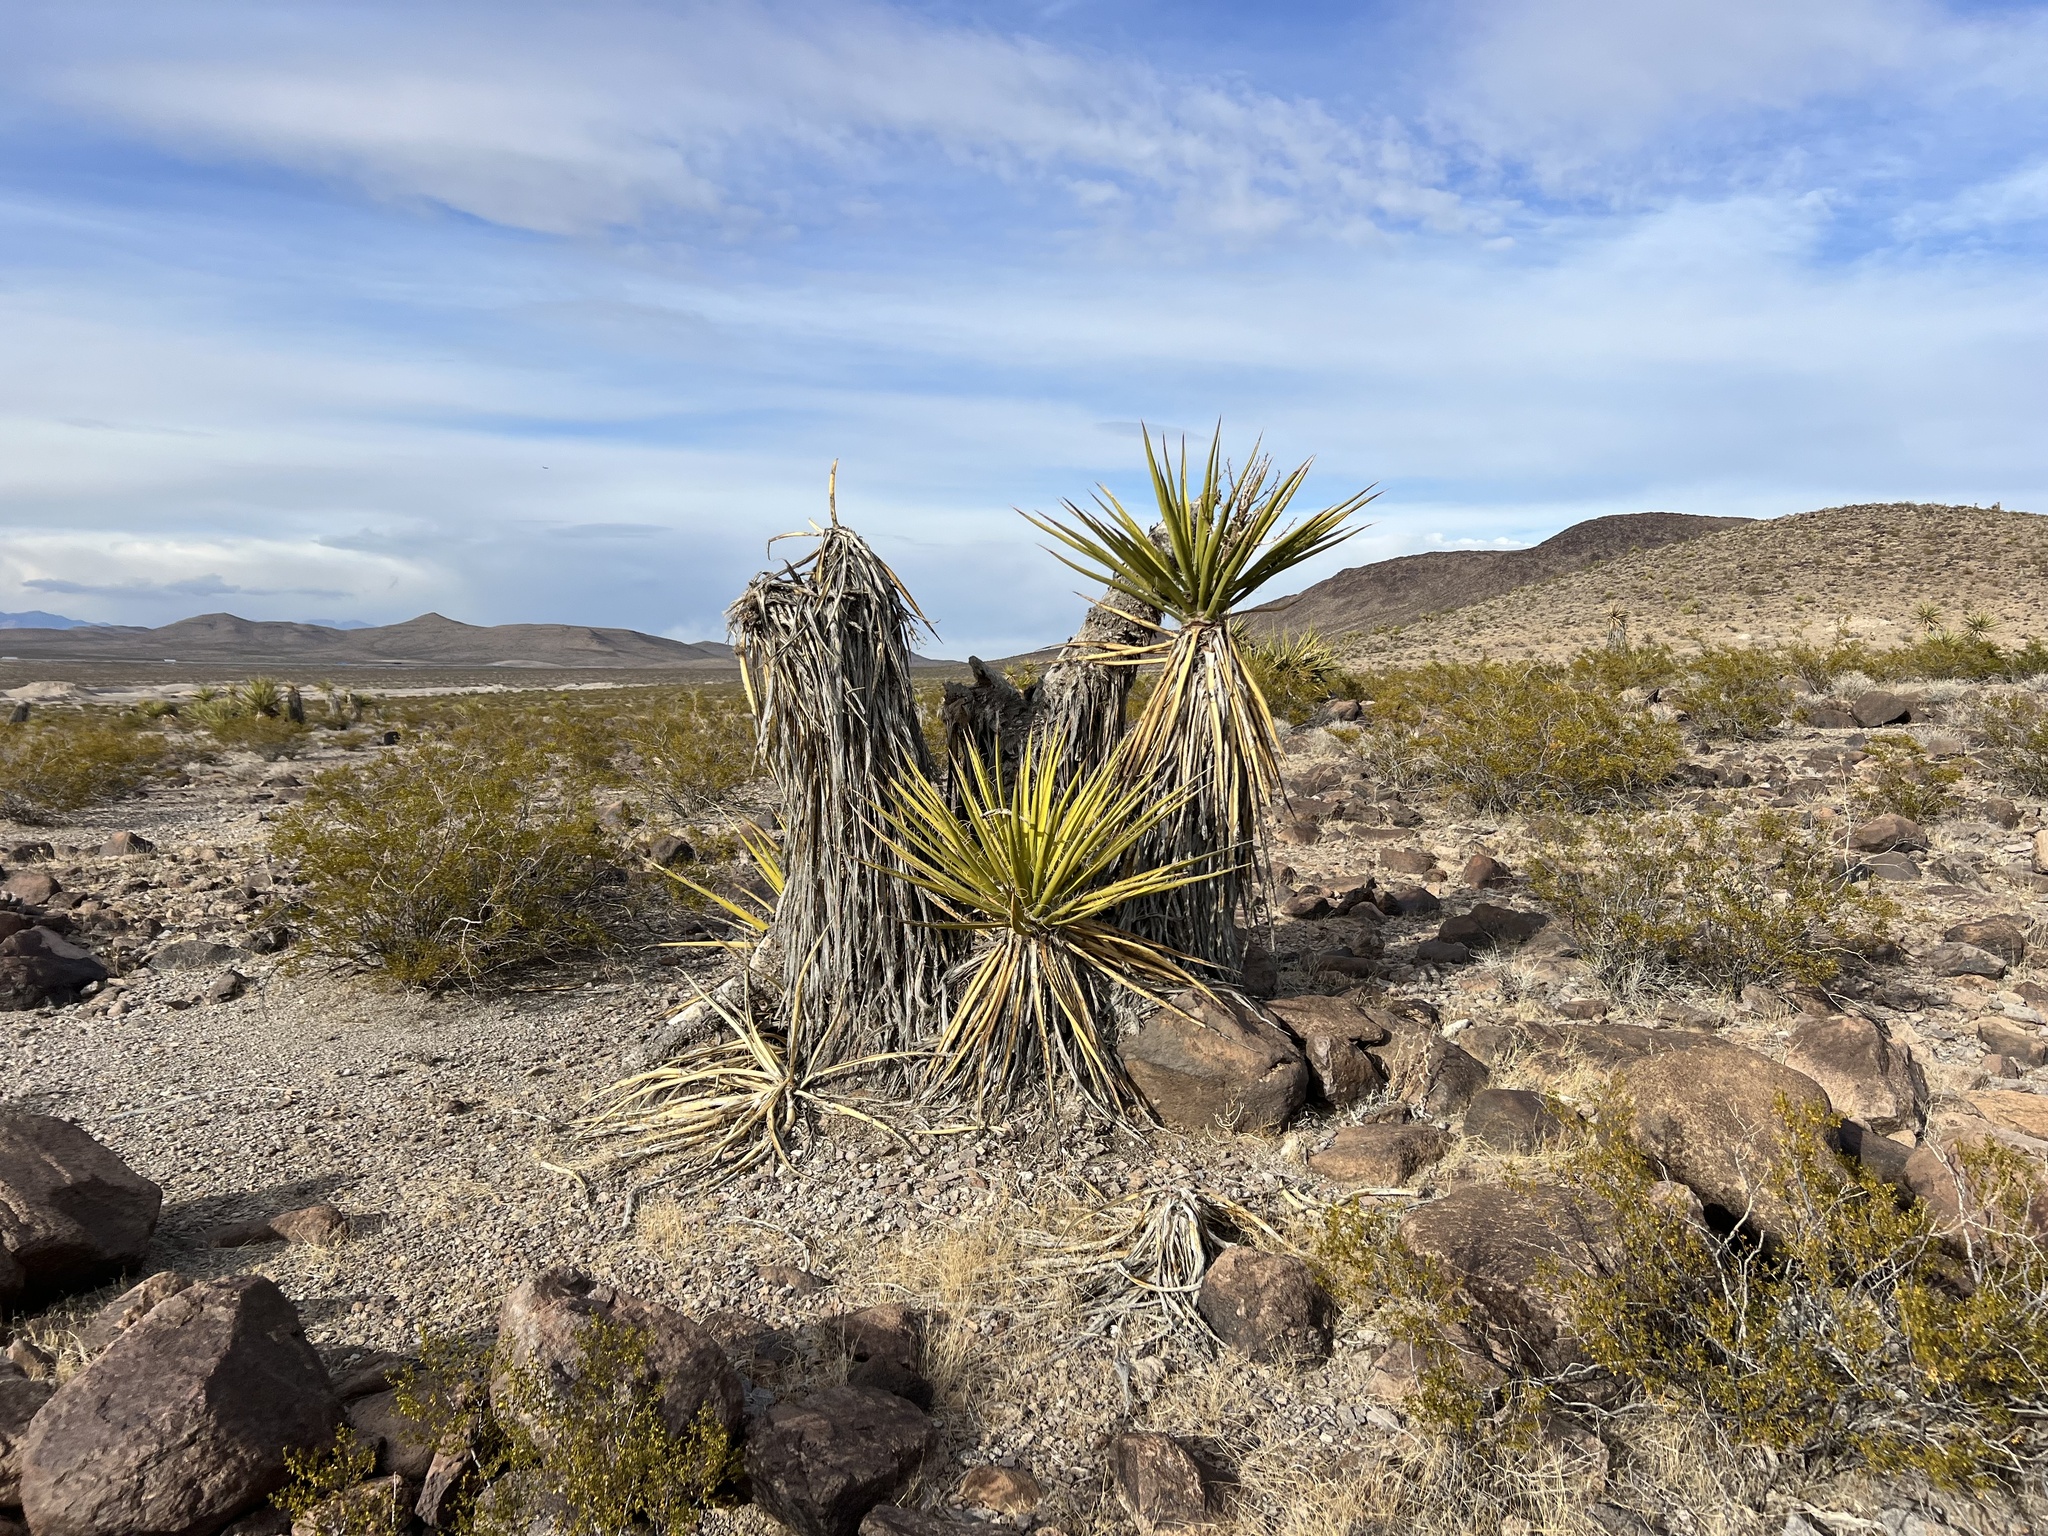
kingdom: Plantae
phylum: Tracheophyta
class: Liliopsida
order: Asparagales
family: Asparagaceae
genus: Yucca
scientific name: Yucca schidigera
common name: Mojave yucca
